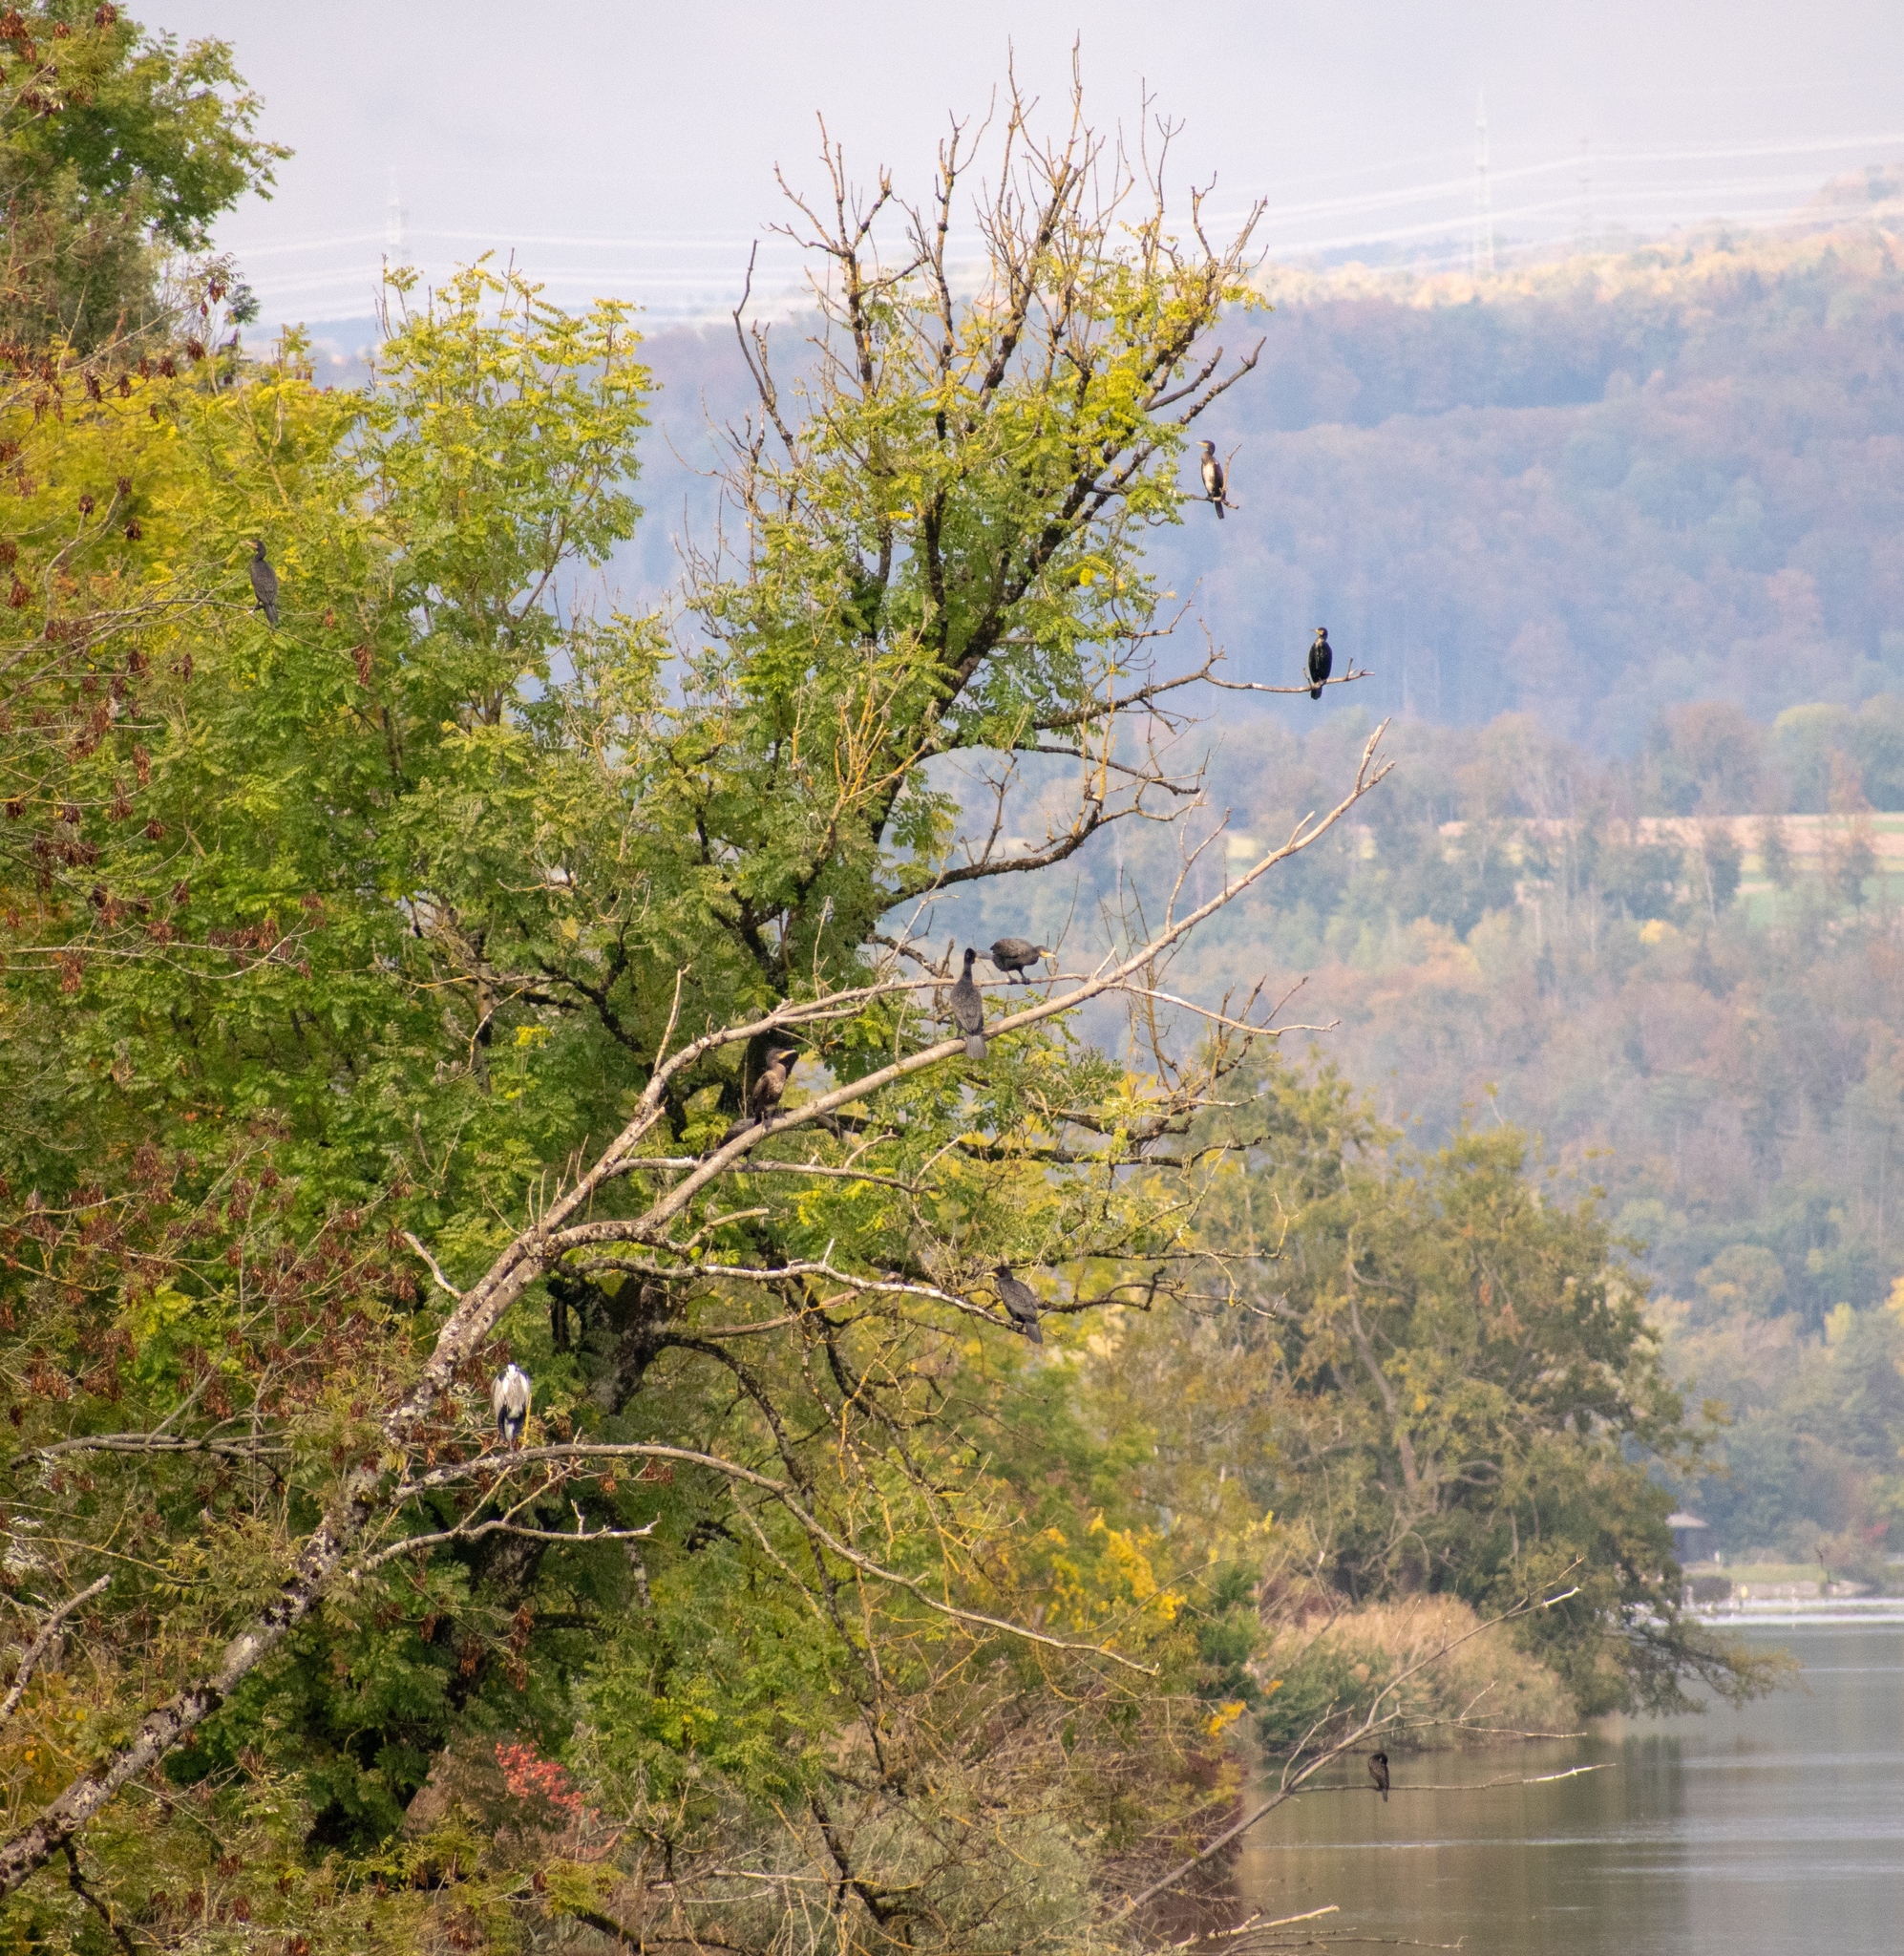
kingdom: Animalia
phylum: Chordata
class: Aves
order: Pelecaniformes
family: Ardeidae
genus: Ardea
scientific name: Ardea cinerea
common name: Grey heron
